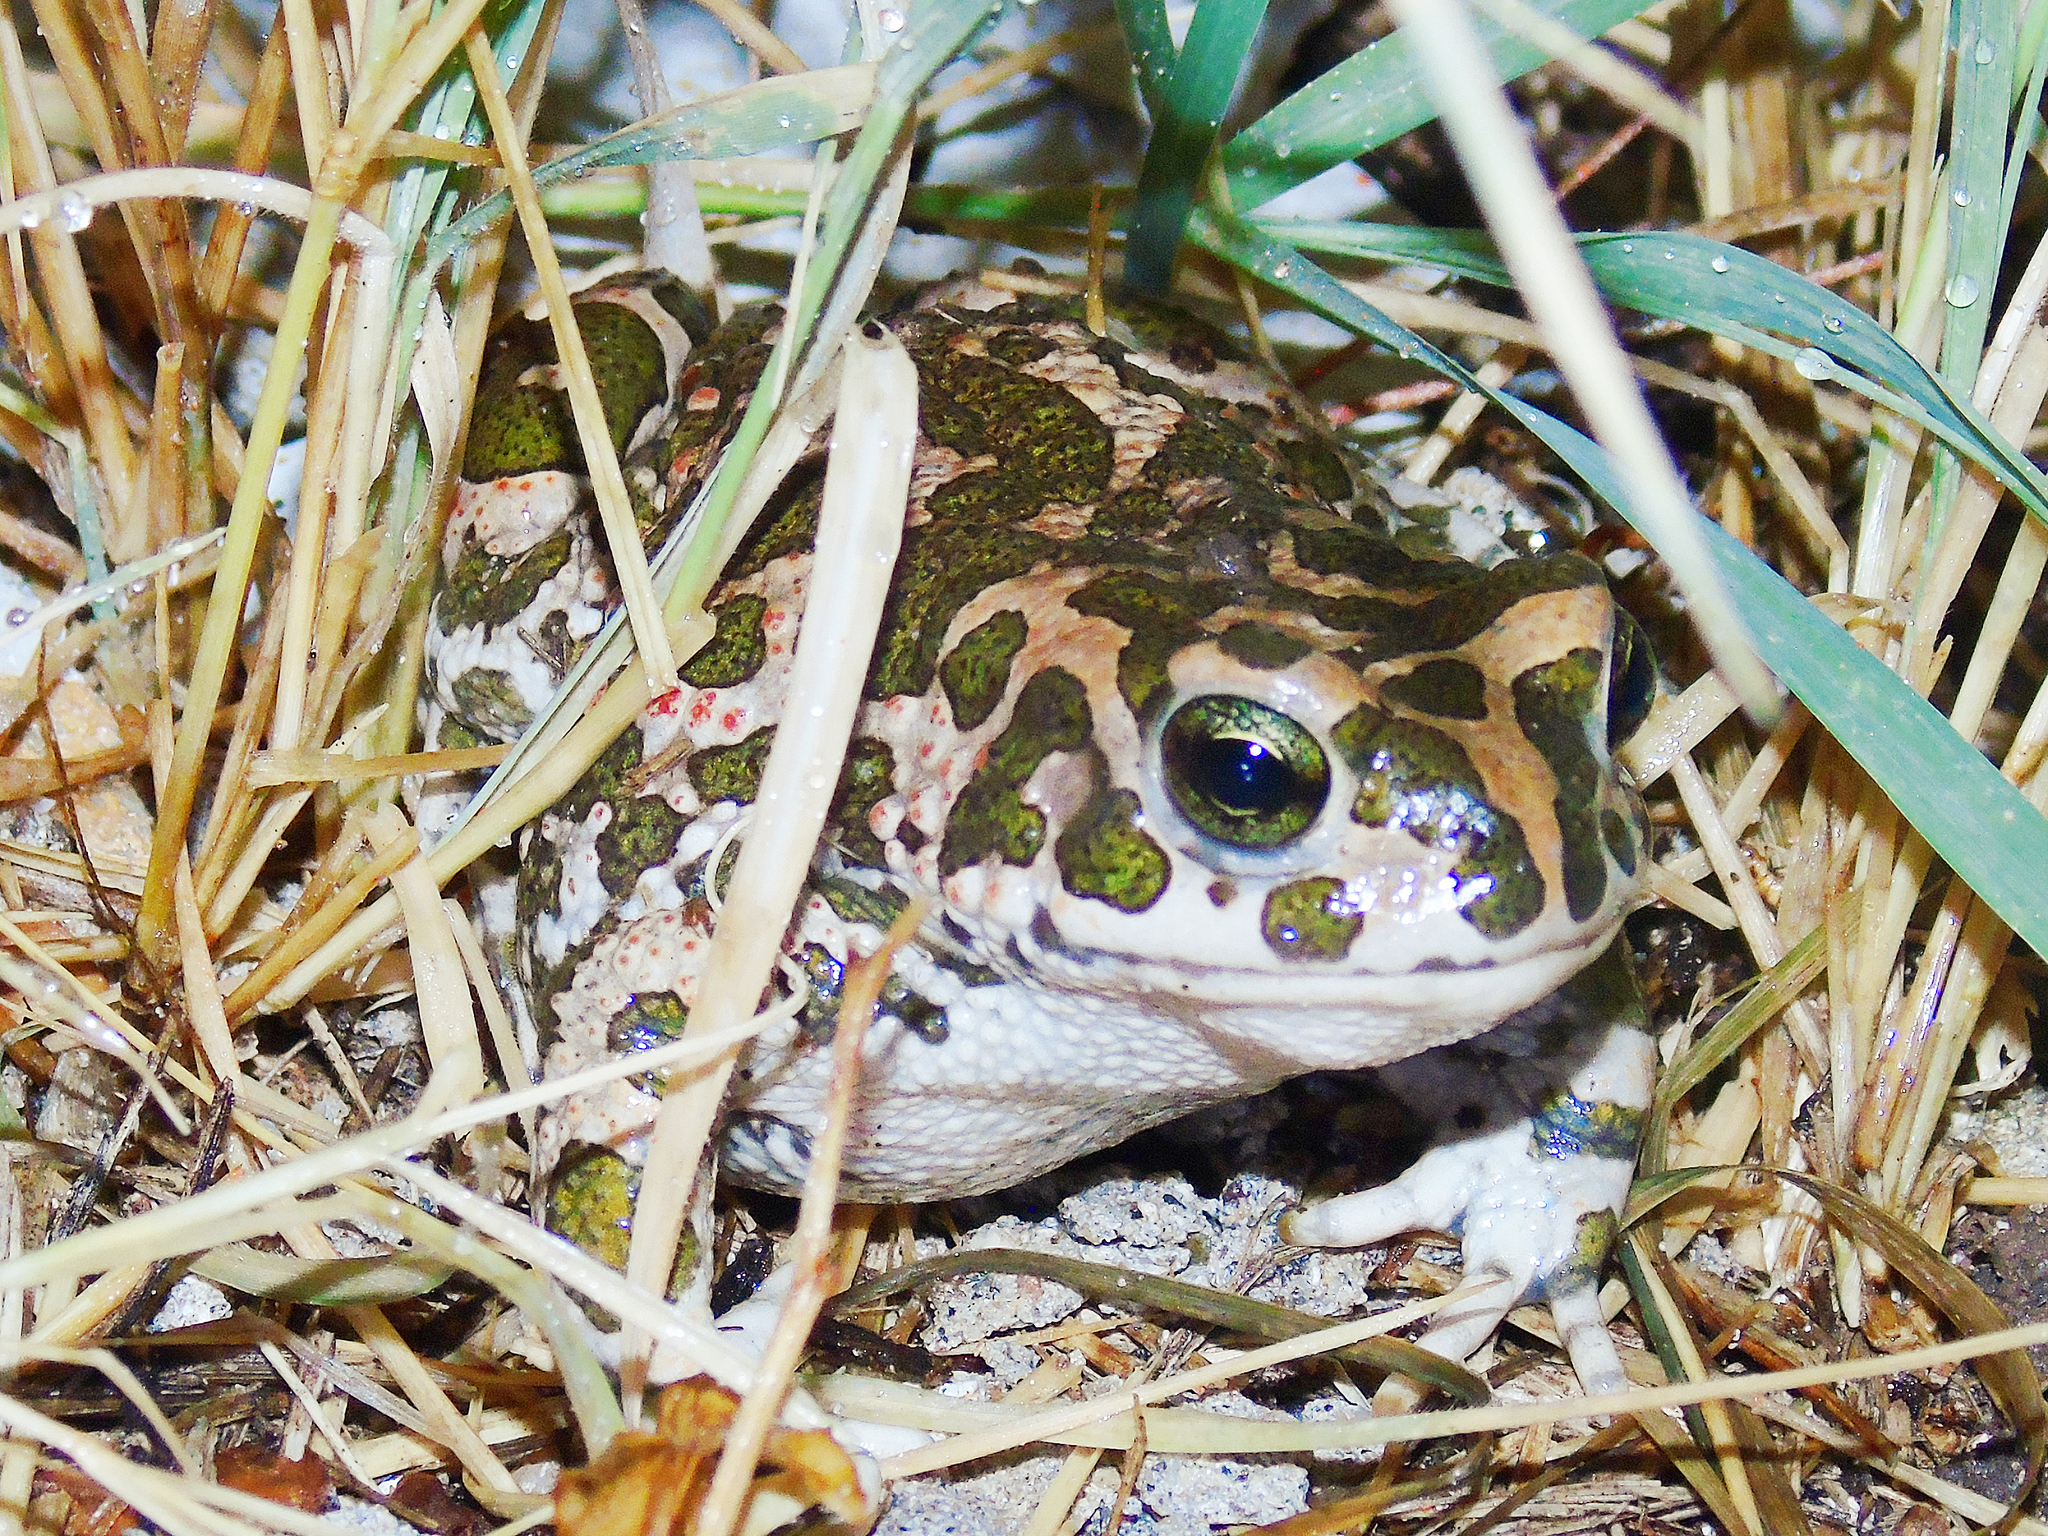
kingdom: Animalia
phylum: Chordata
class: Amphibia
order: Anura
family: Bufonidae
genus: Bufotes
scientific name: Bufotes viridis
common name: European green toad
